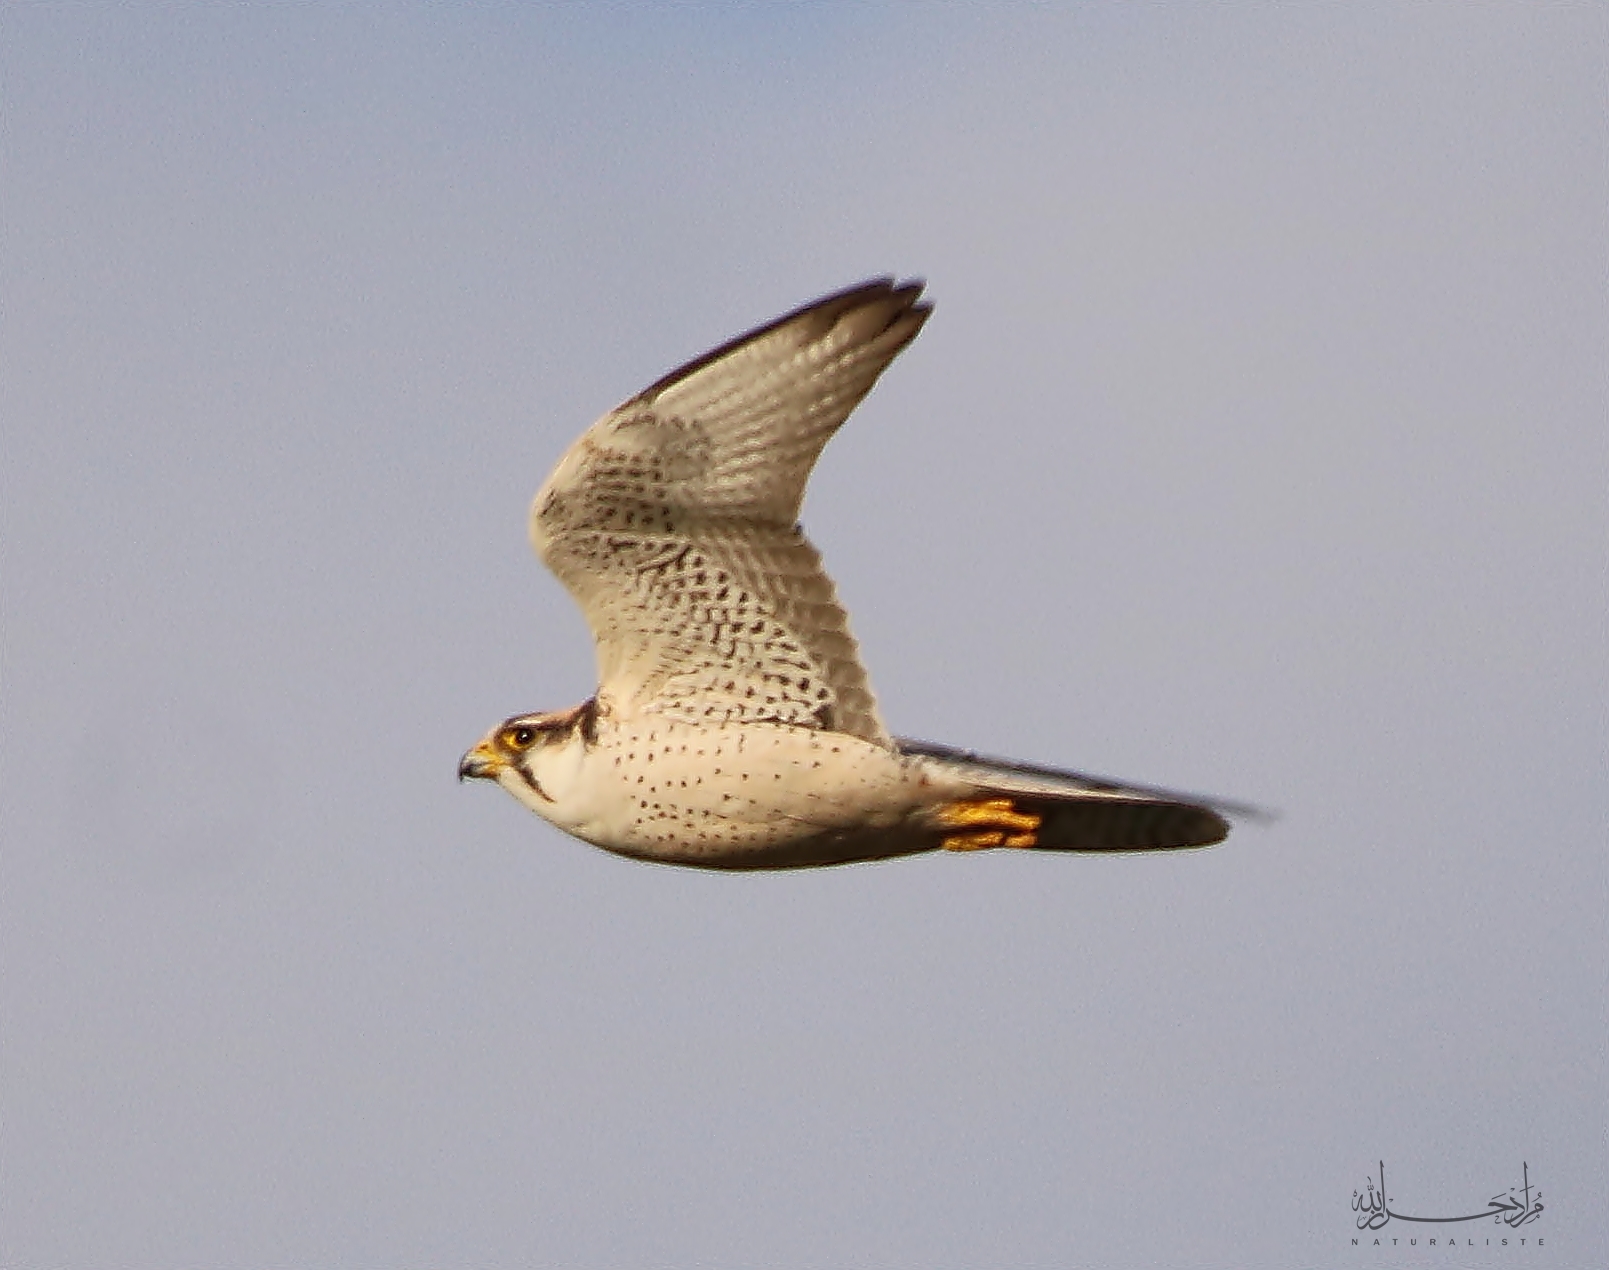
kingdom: Animalia
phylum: Chordata
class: Aves
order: Falconiformes
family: Falconidae
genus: Falco
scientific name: Falco biarmicus
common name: Lanner falcon
